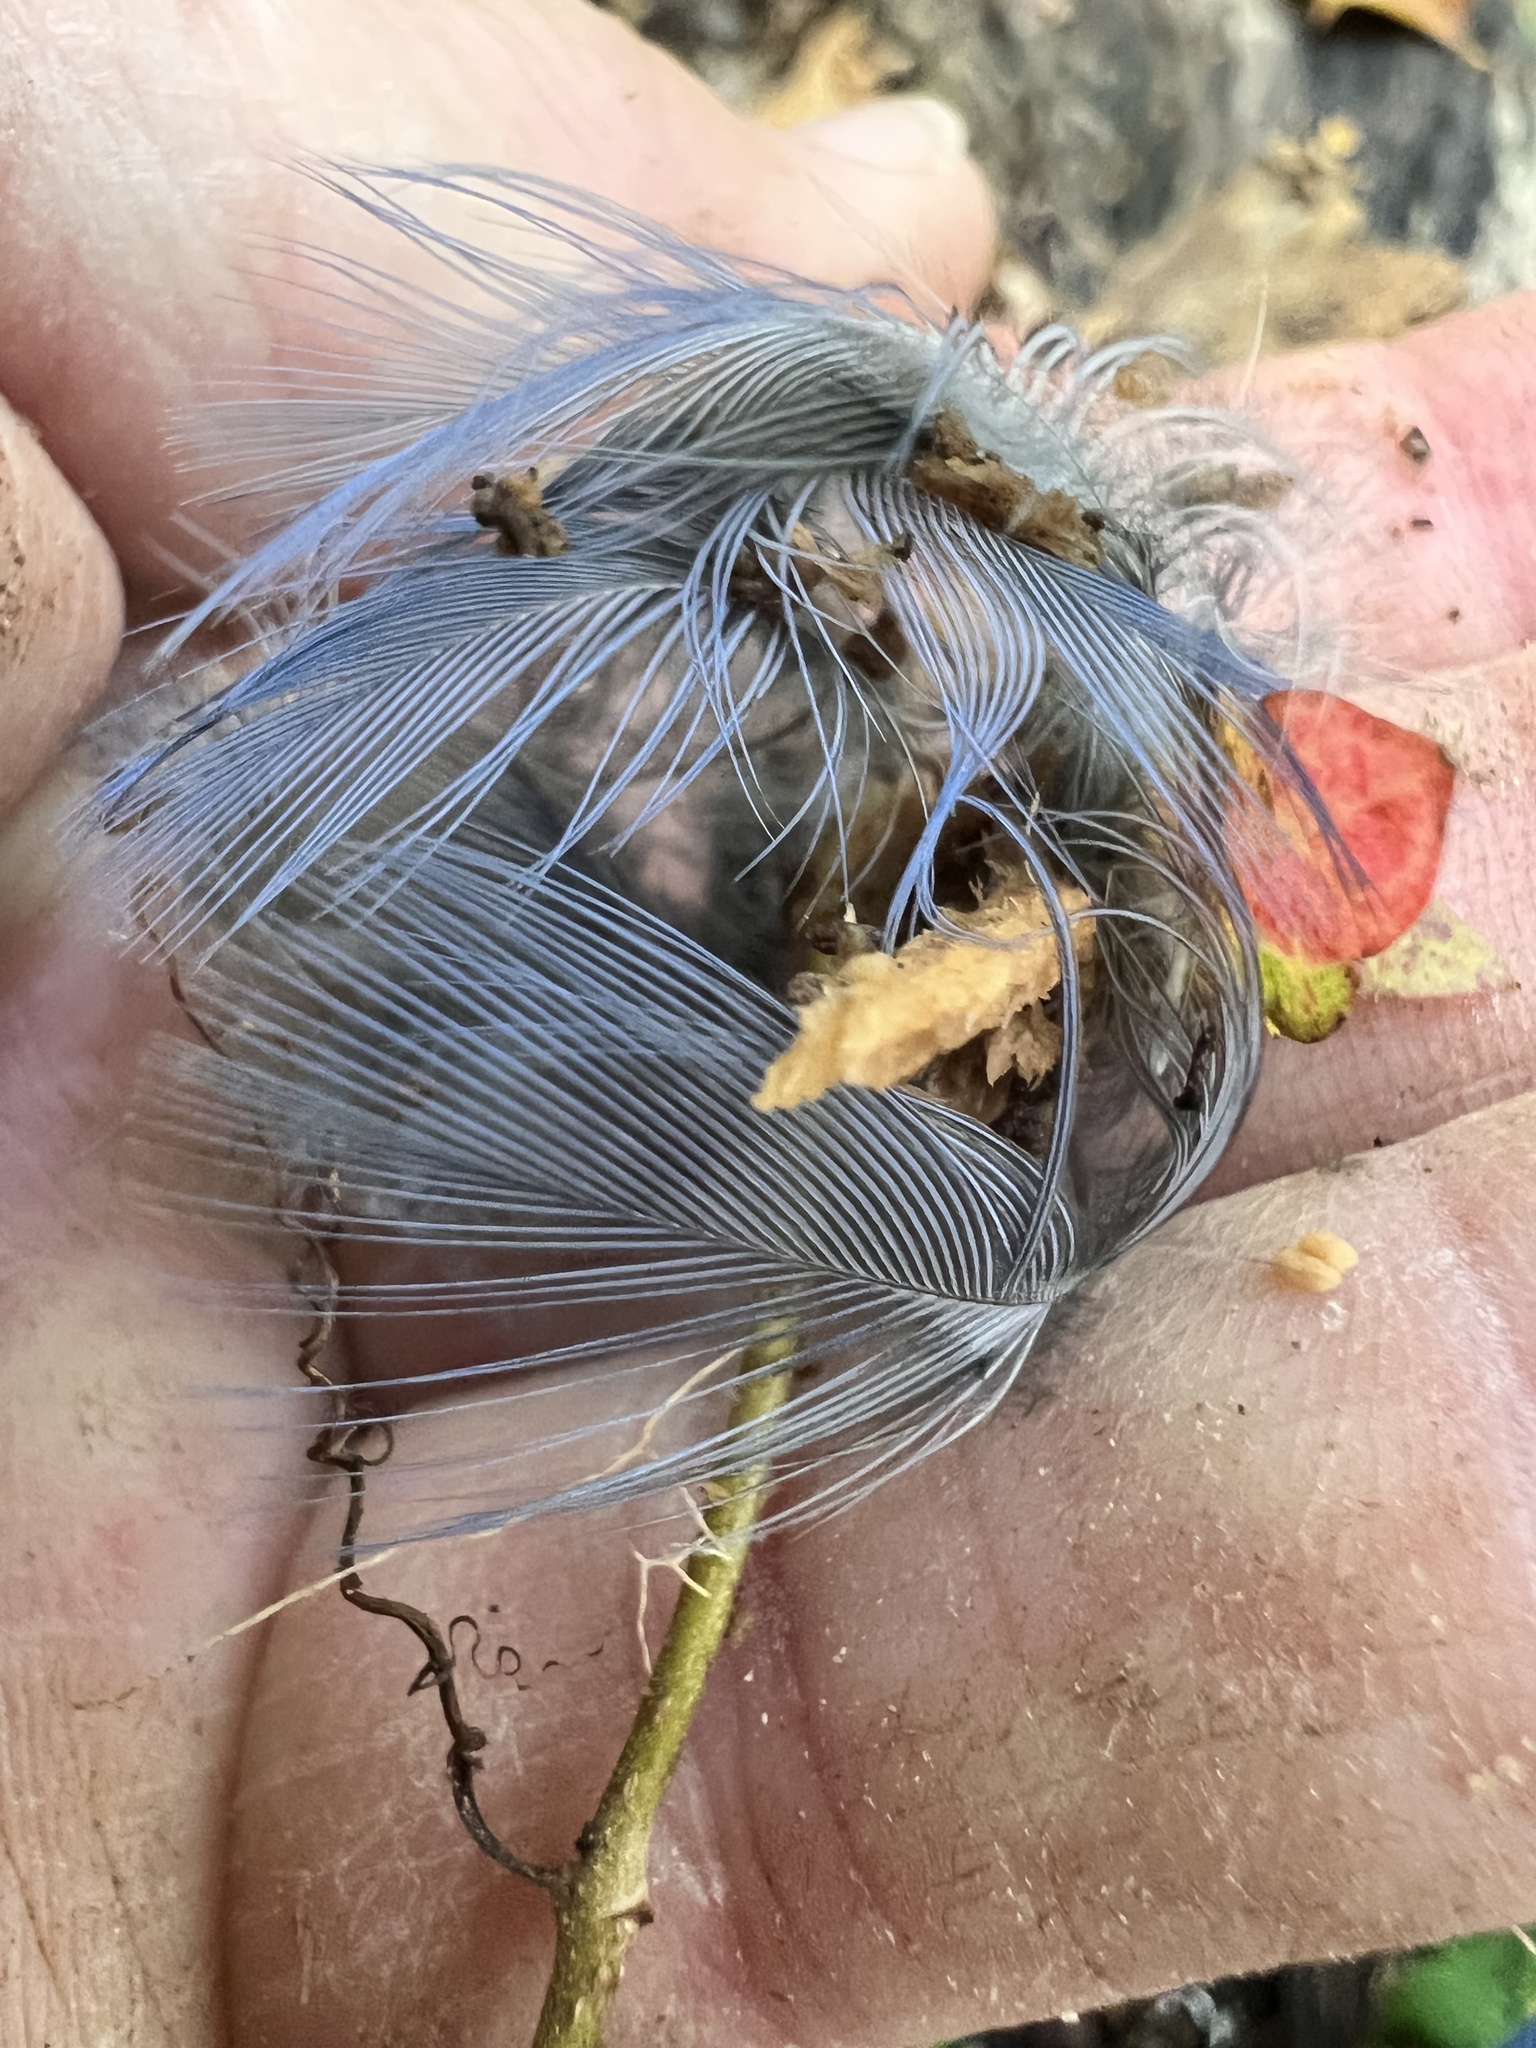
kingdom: Animalia
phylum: Chordata
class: Aves
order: Passeriformes
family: Corvidae
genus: Cyanocitta
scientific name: Cyanocitta cristata
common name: Blue jay
